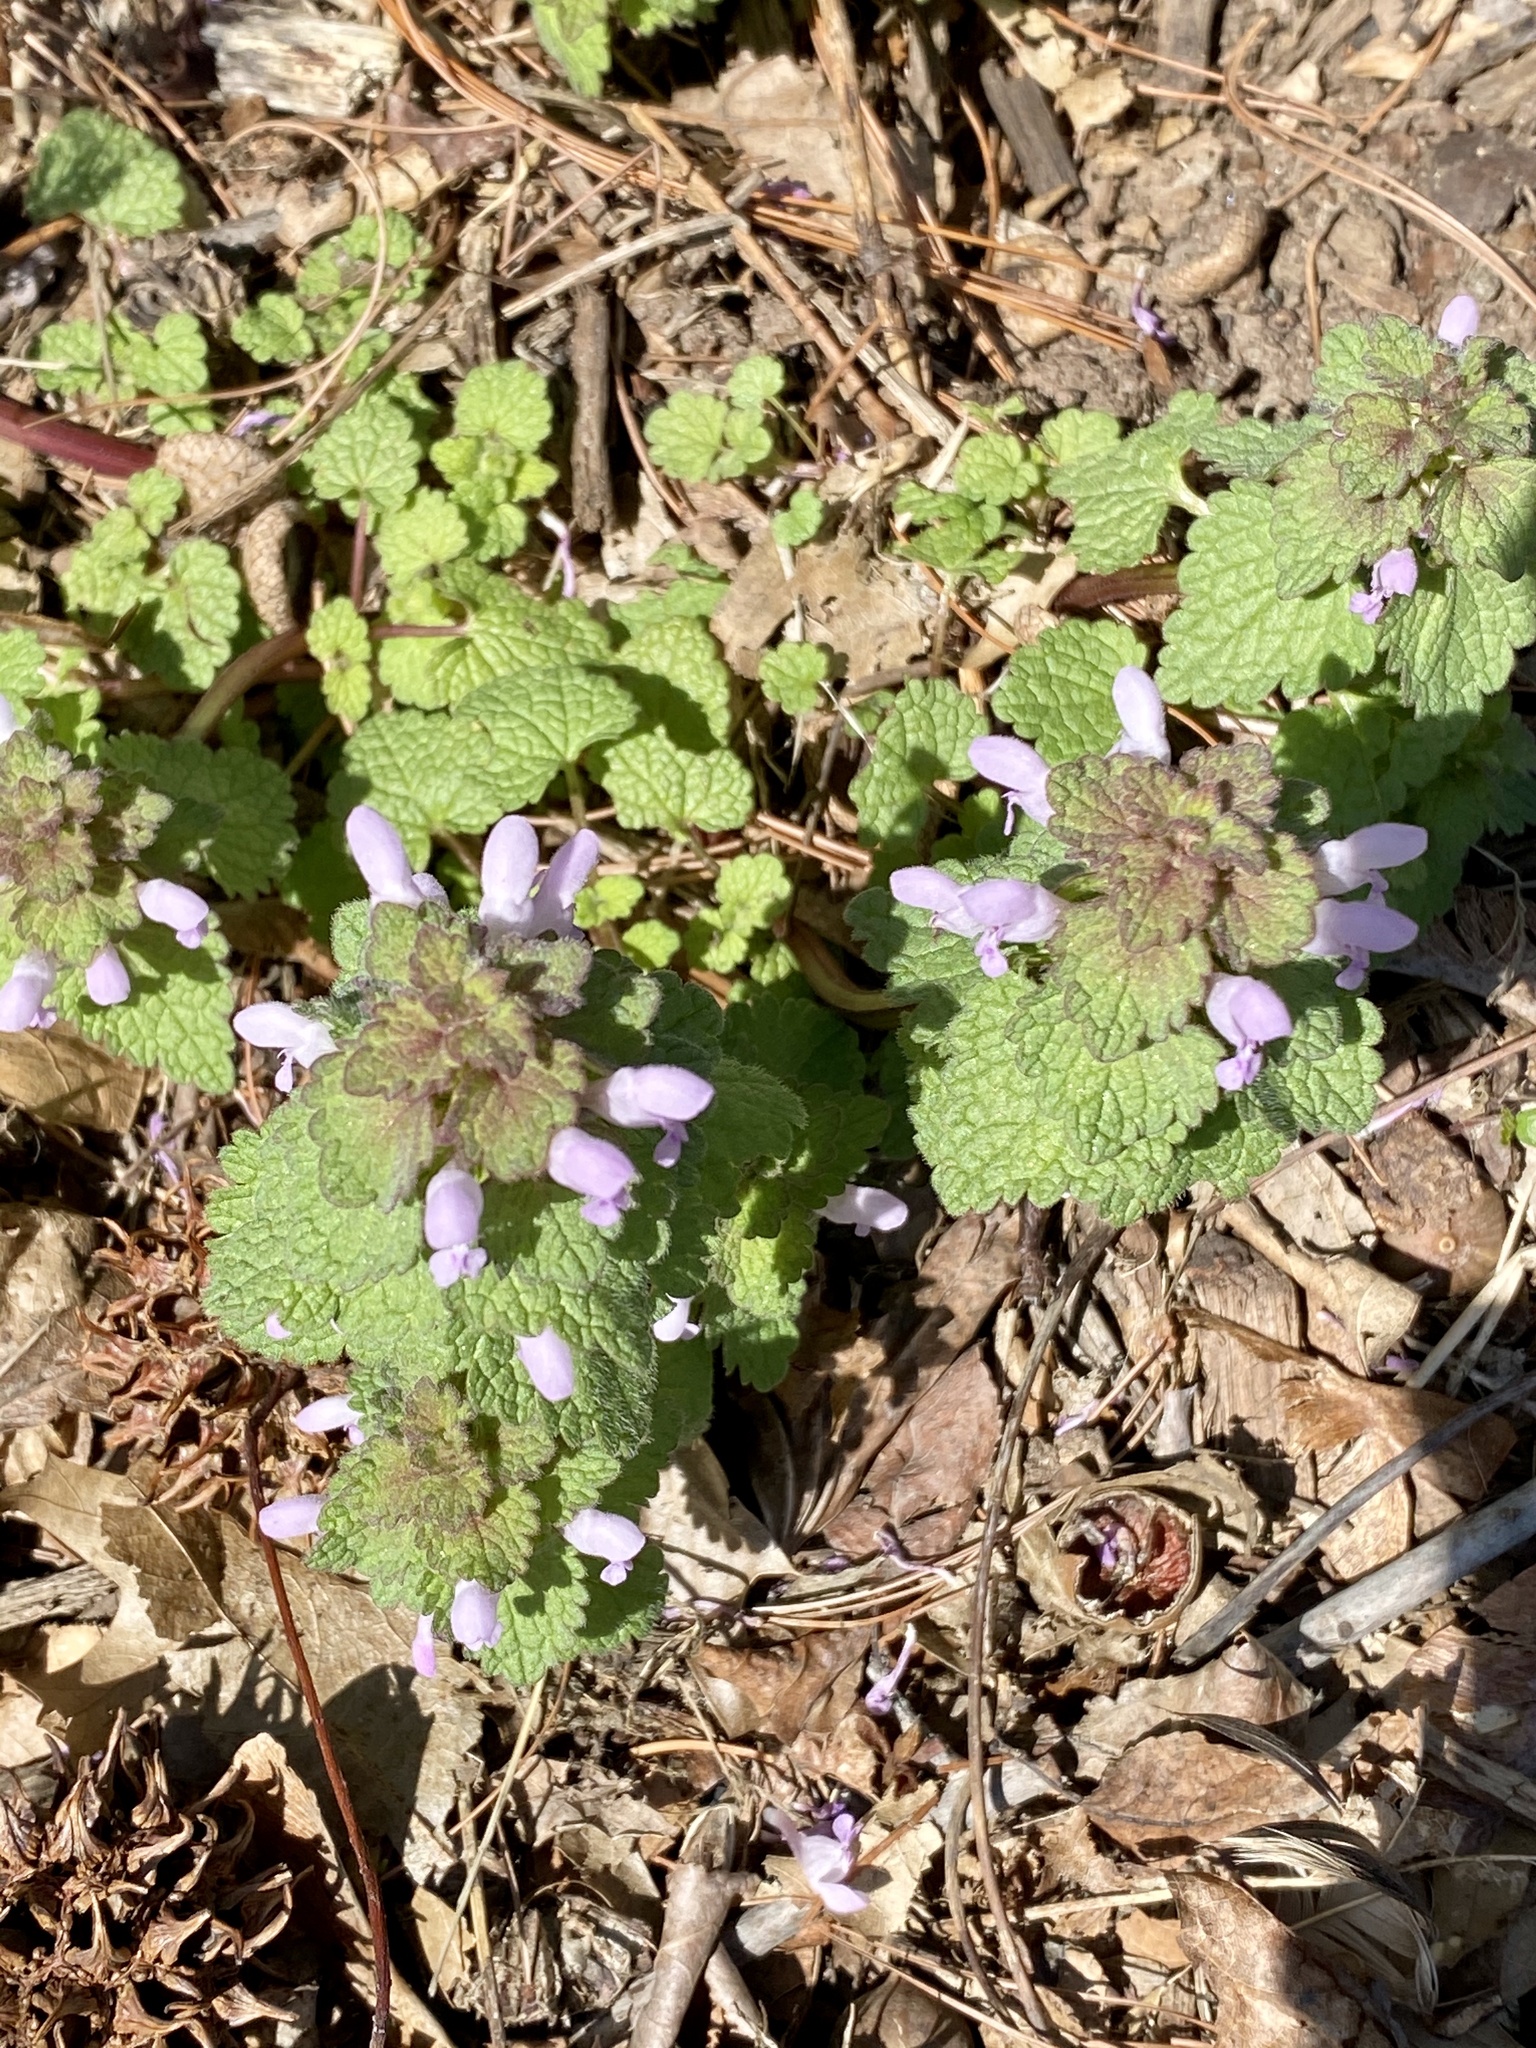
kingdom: Plantae
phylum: Tracheophyta
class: Magnoliopsida
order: Lamiales
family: Lamiaceae
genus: Lamium
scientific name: Lamium purpureum
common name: Red dead-nettle
